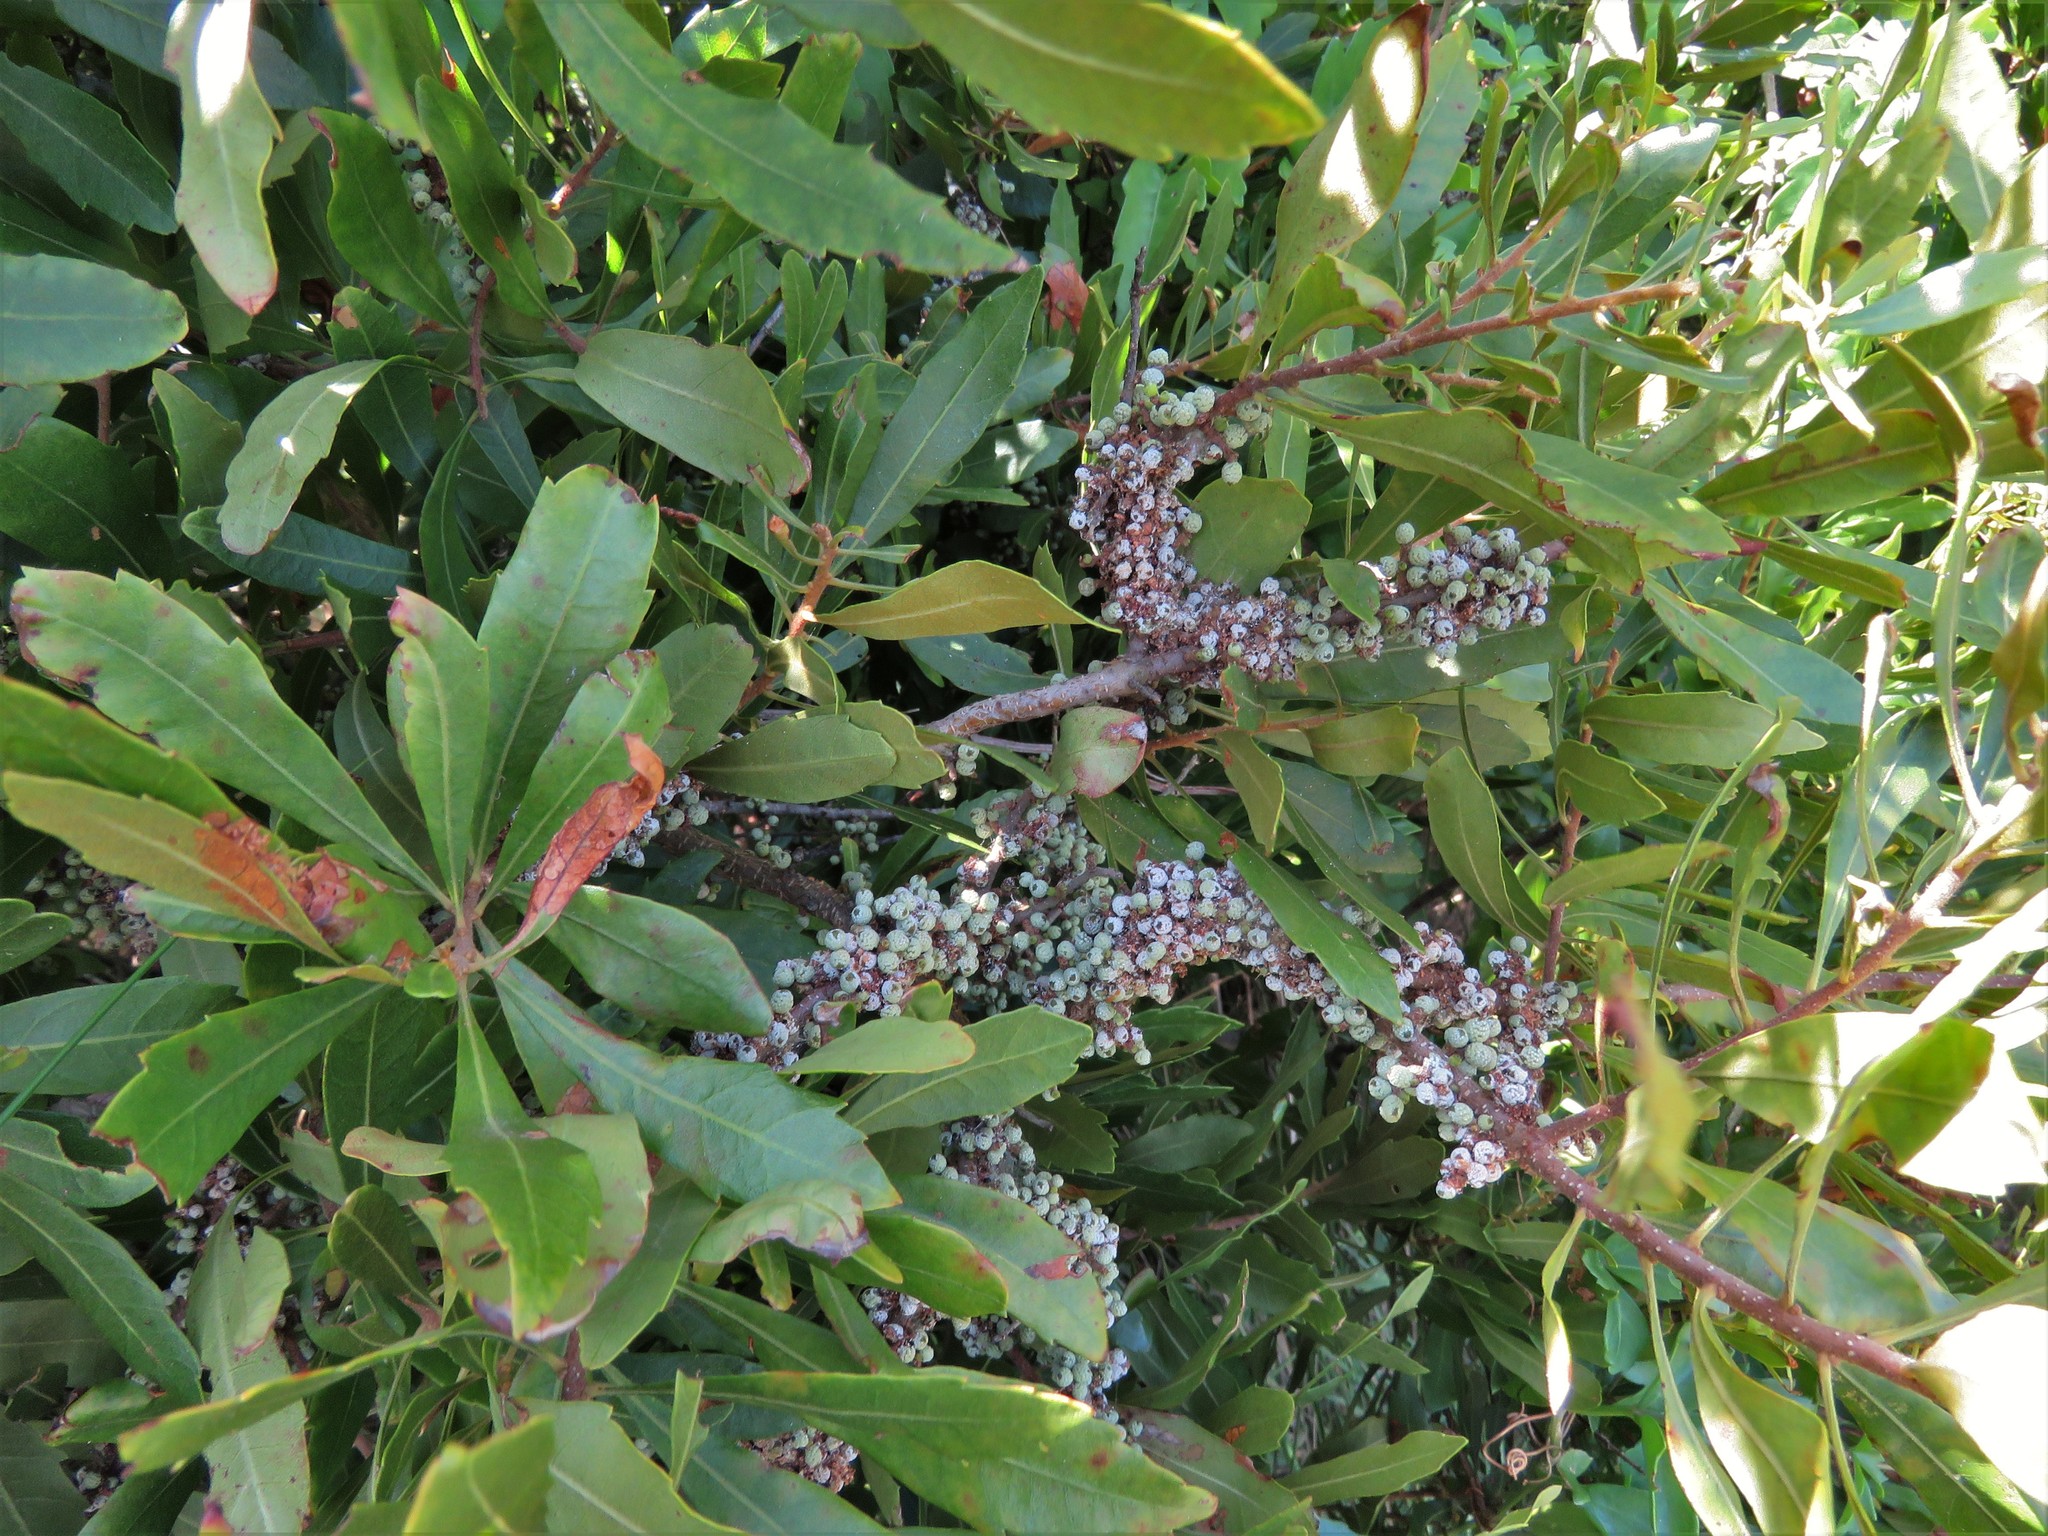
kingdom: Plantae
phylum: Tracheophyta
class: Magnoliopsida
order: Fagales
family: Myricaceae
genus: Morella
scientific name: Morella cerifera
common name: Wax myrtle
